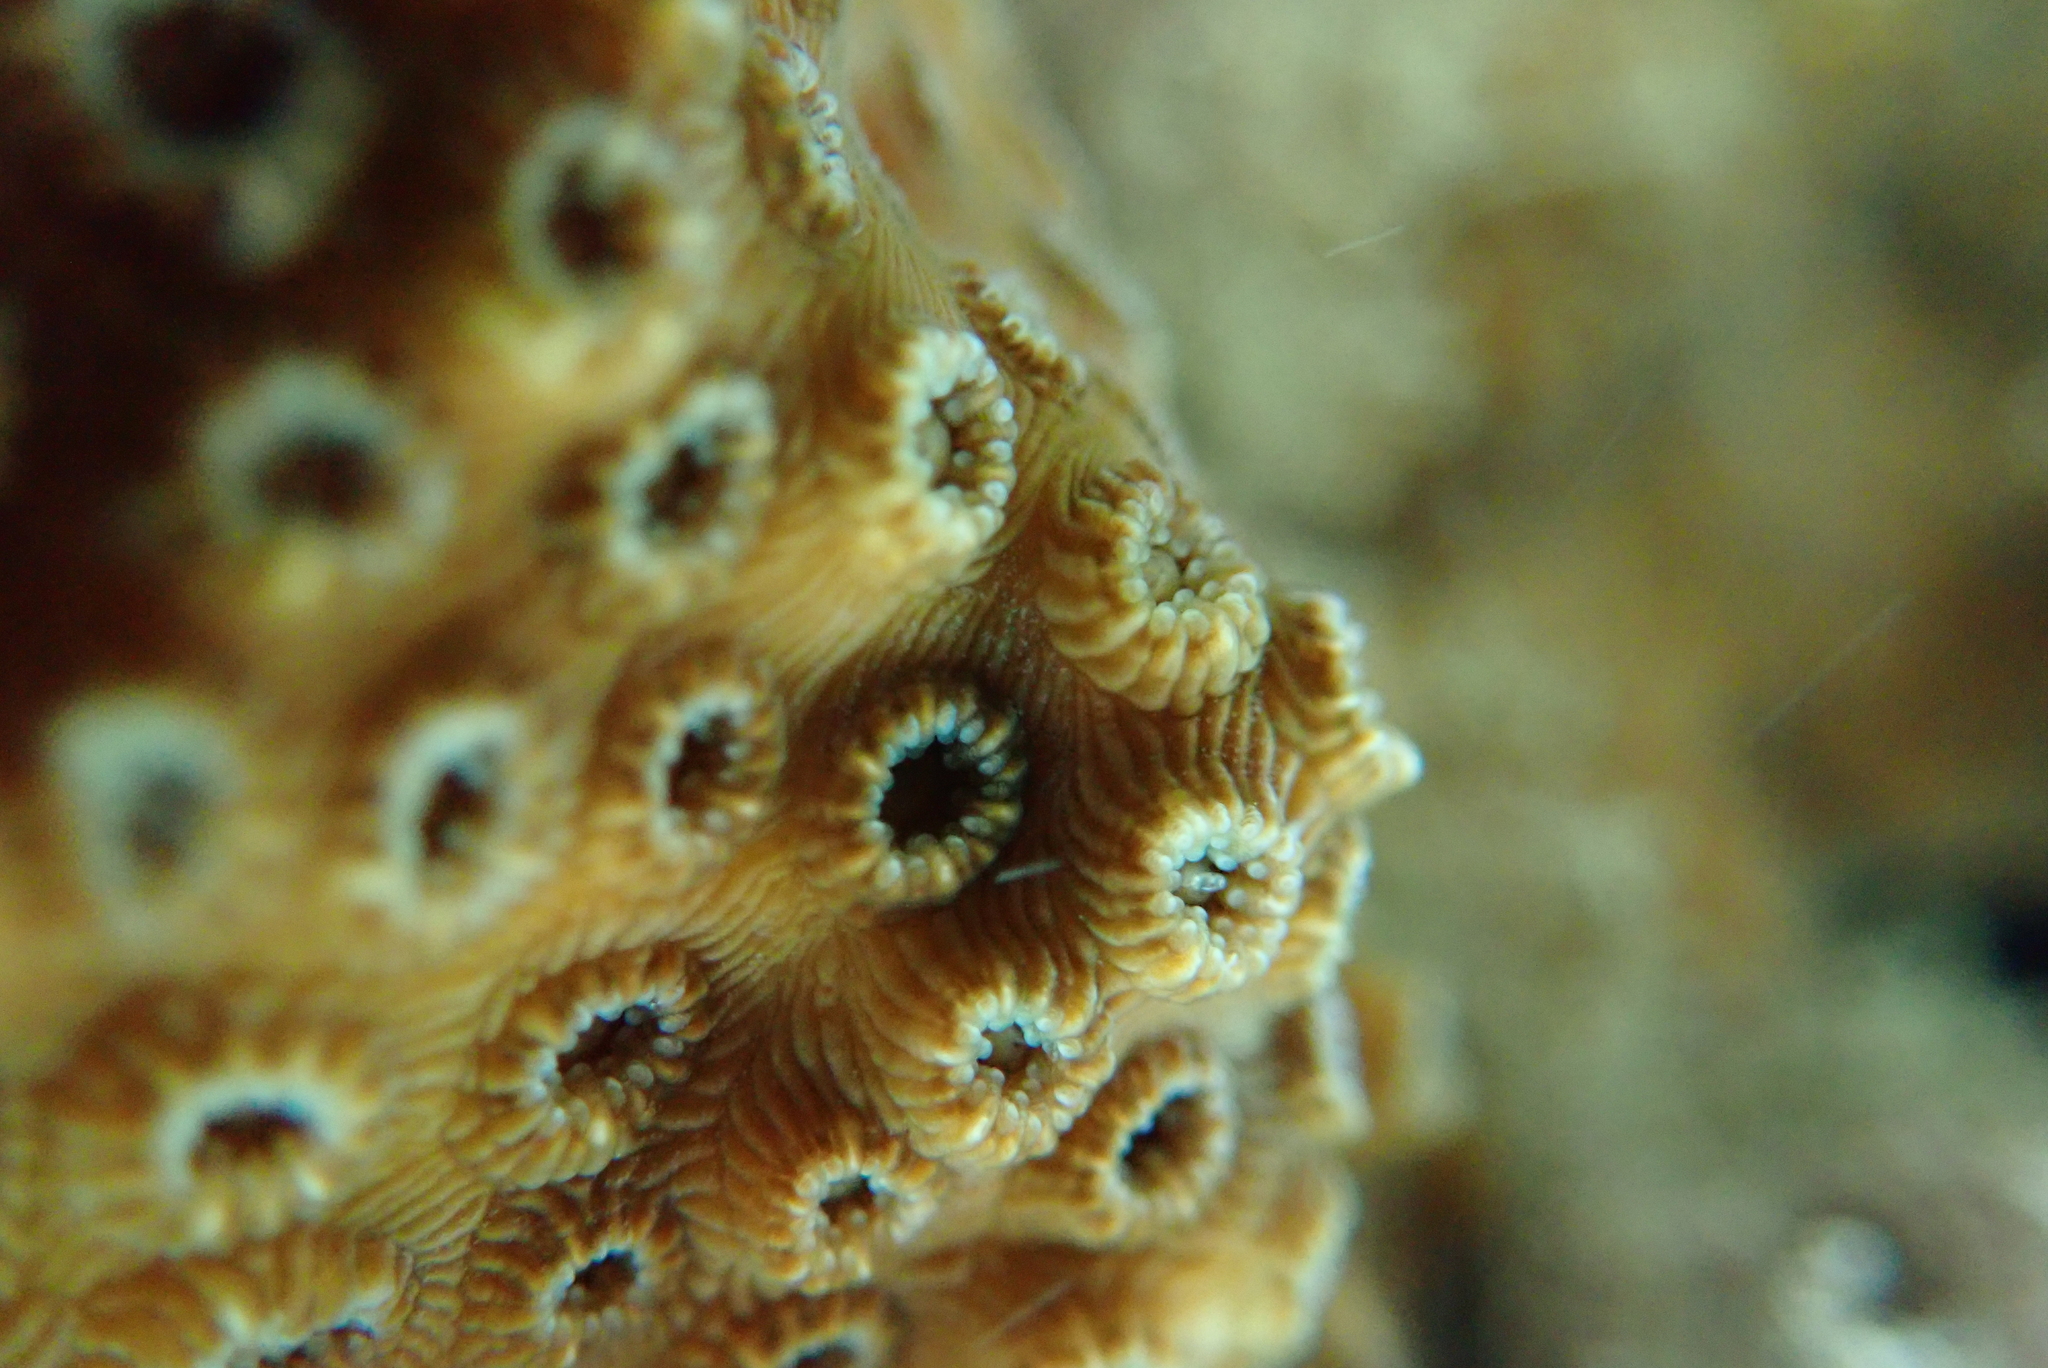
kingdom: Animalia
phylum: Cnidaria
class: Anthozoa
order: Scleractinia
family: Oculinidae
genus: Oculina
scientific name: Oculina patagonica
